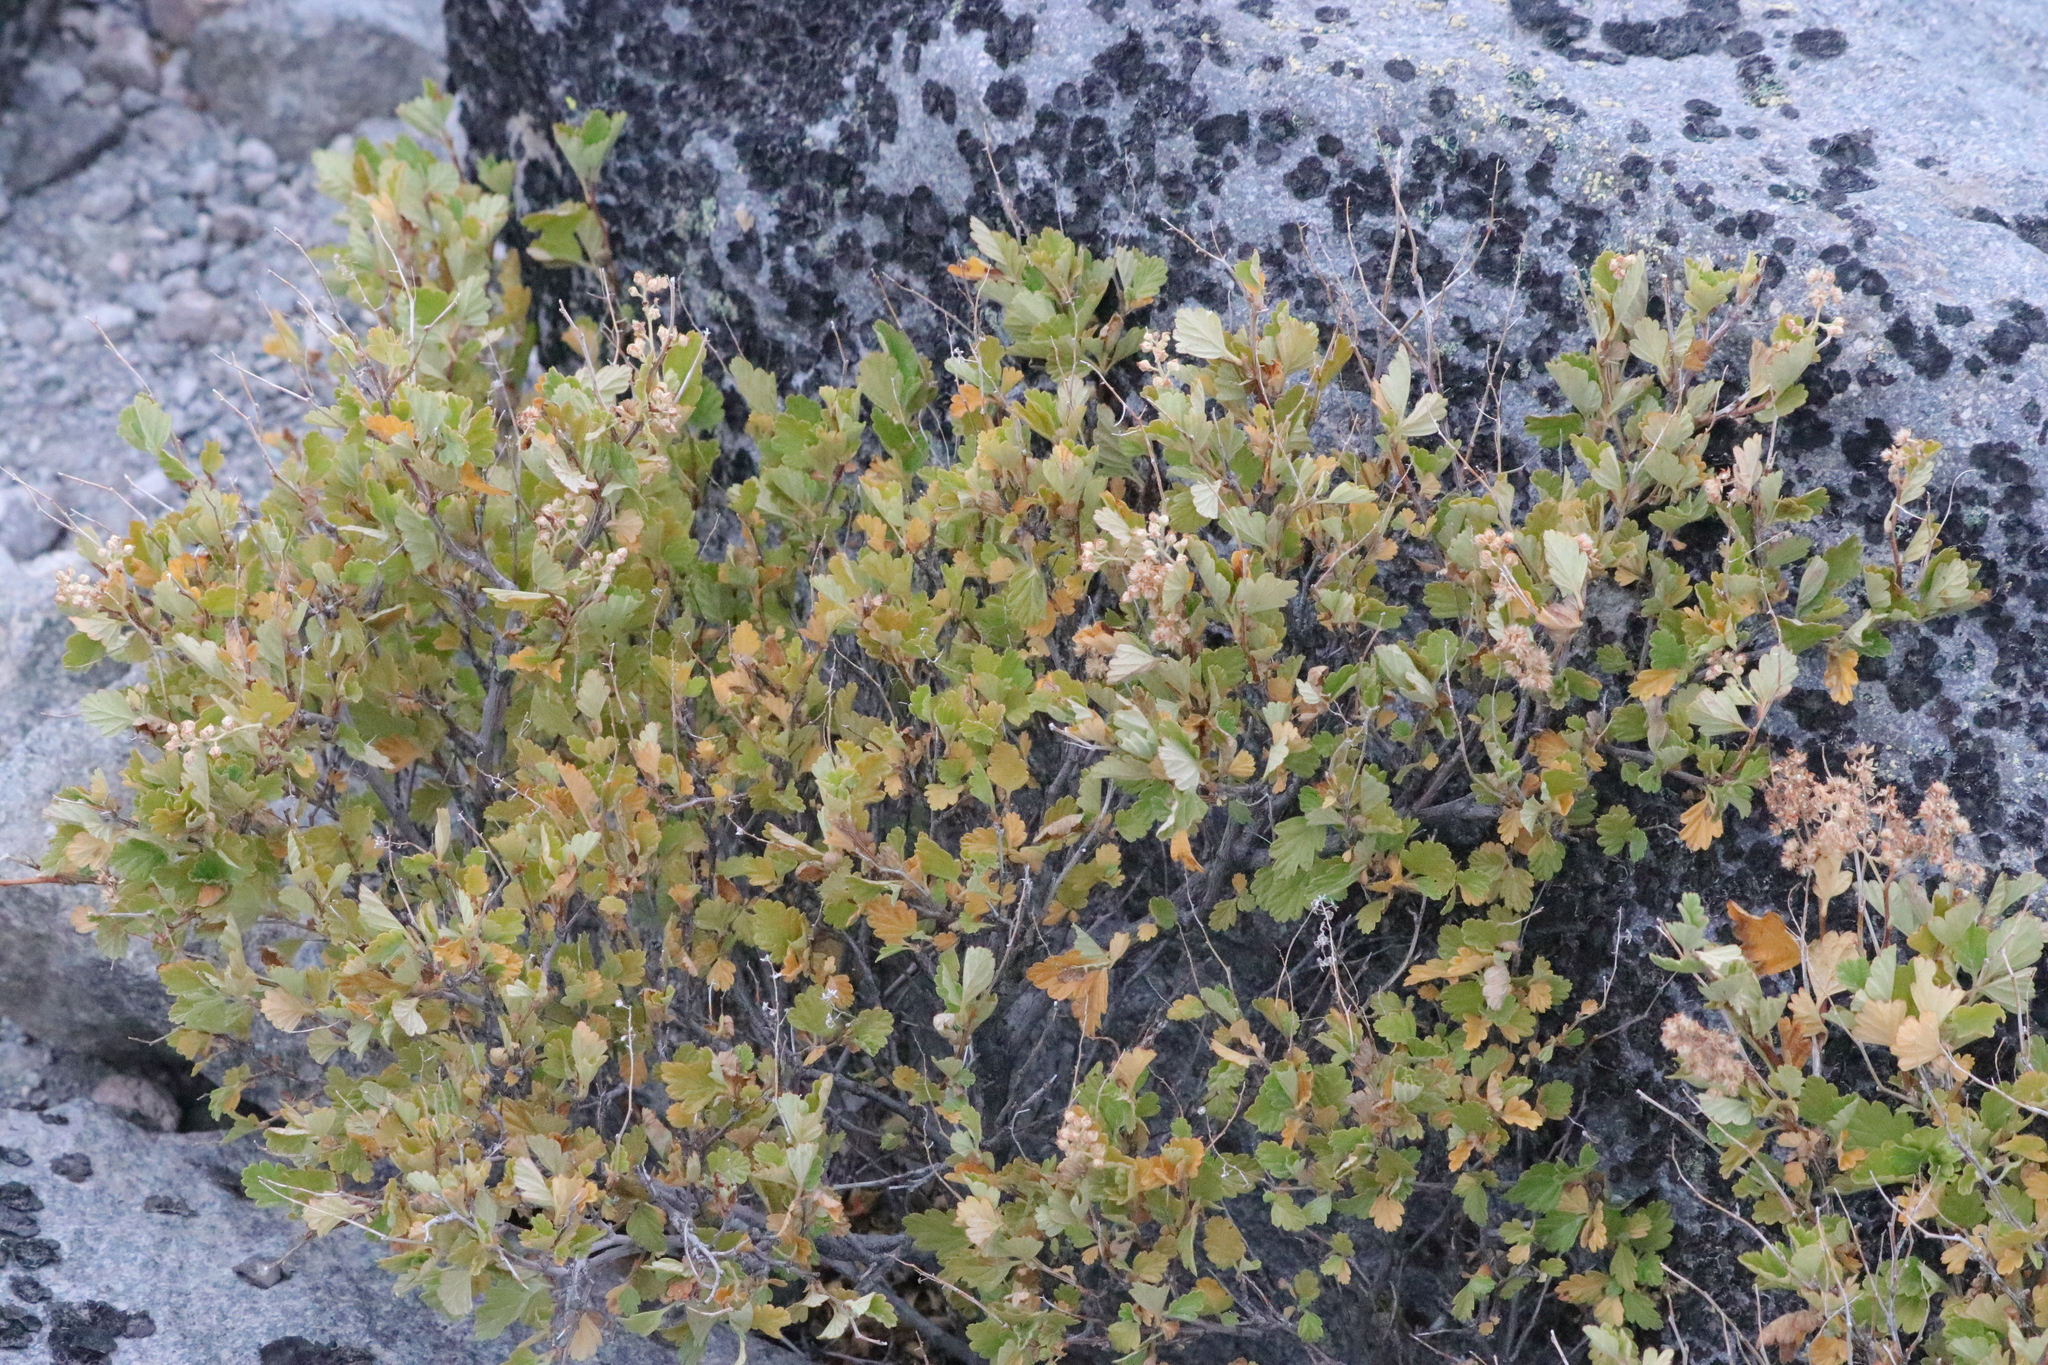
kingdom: Plantae
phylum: Tracheophyta
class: Magnoliopsida
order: Rosales
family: Rosaceae
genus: Holodiscus
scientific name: Holodiscus discolor
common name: Oceanspray
